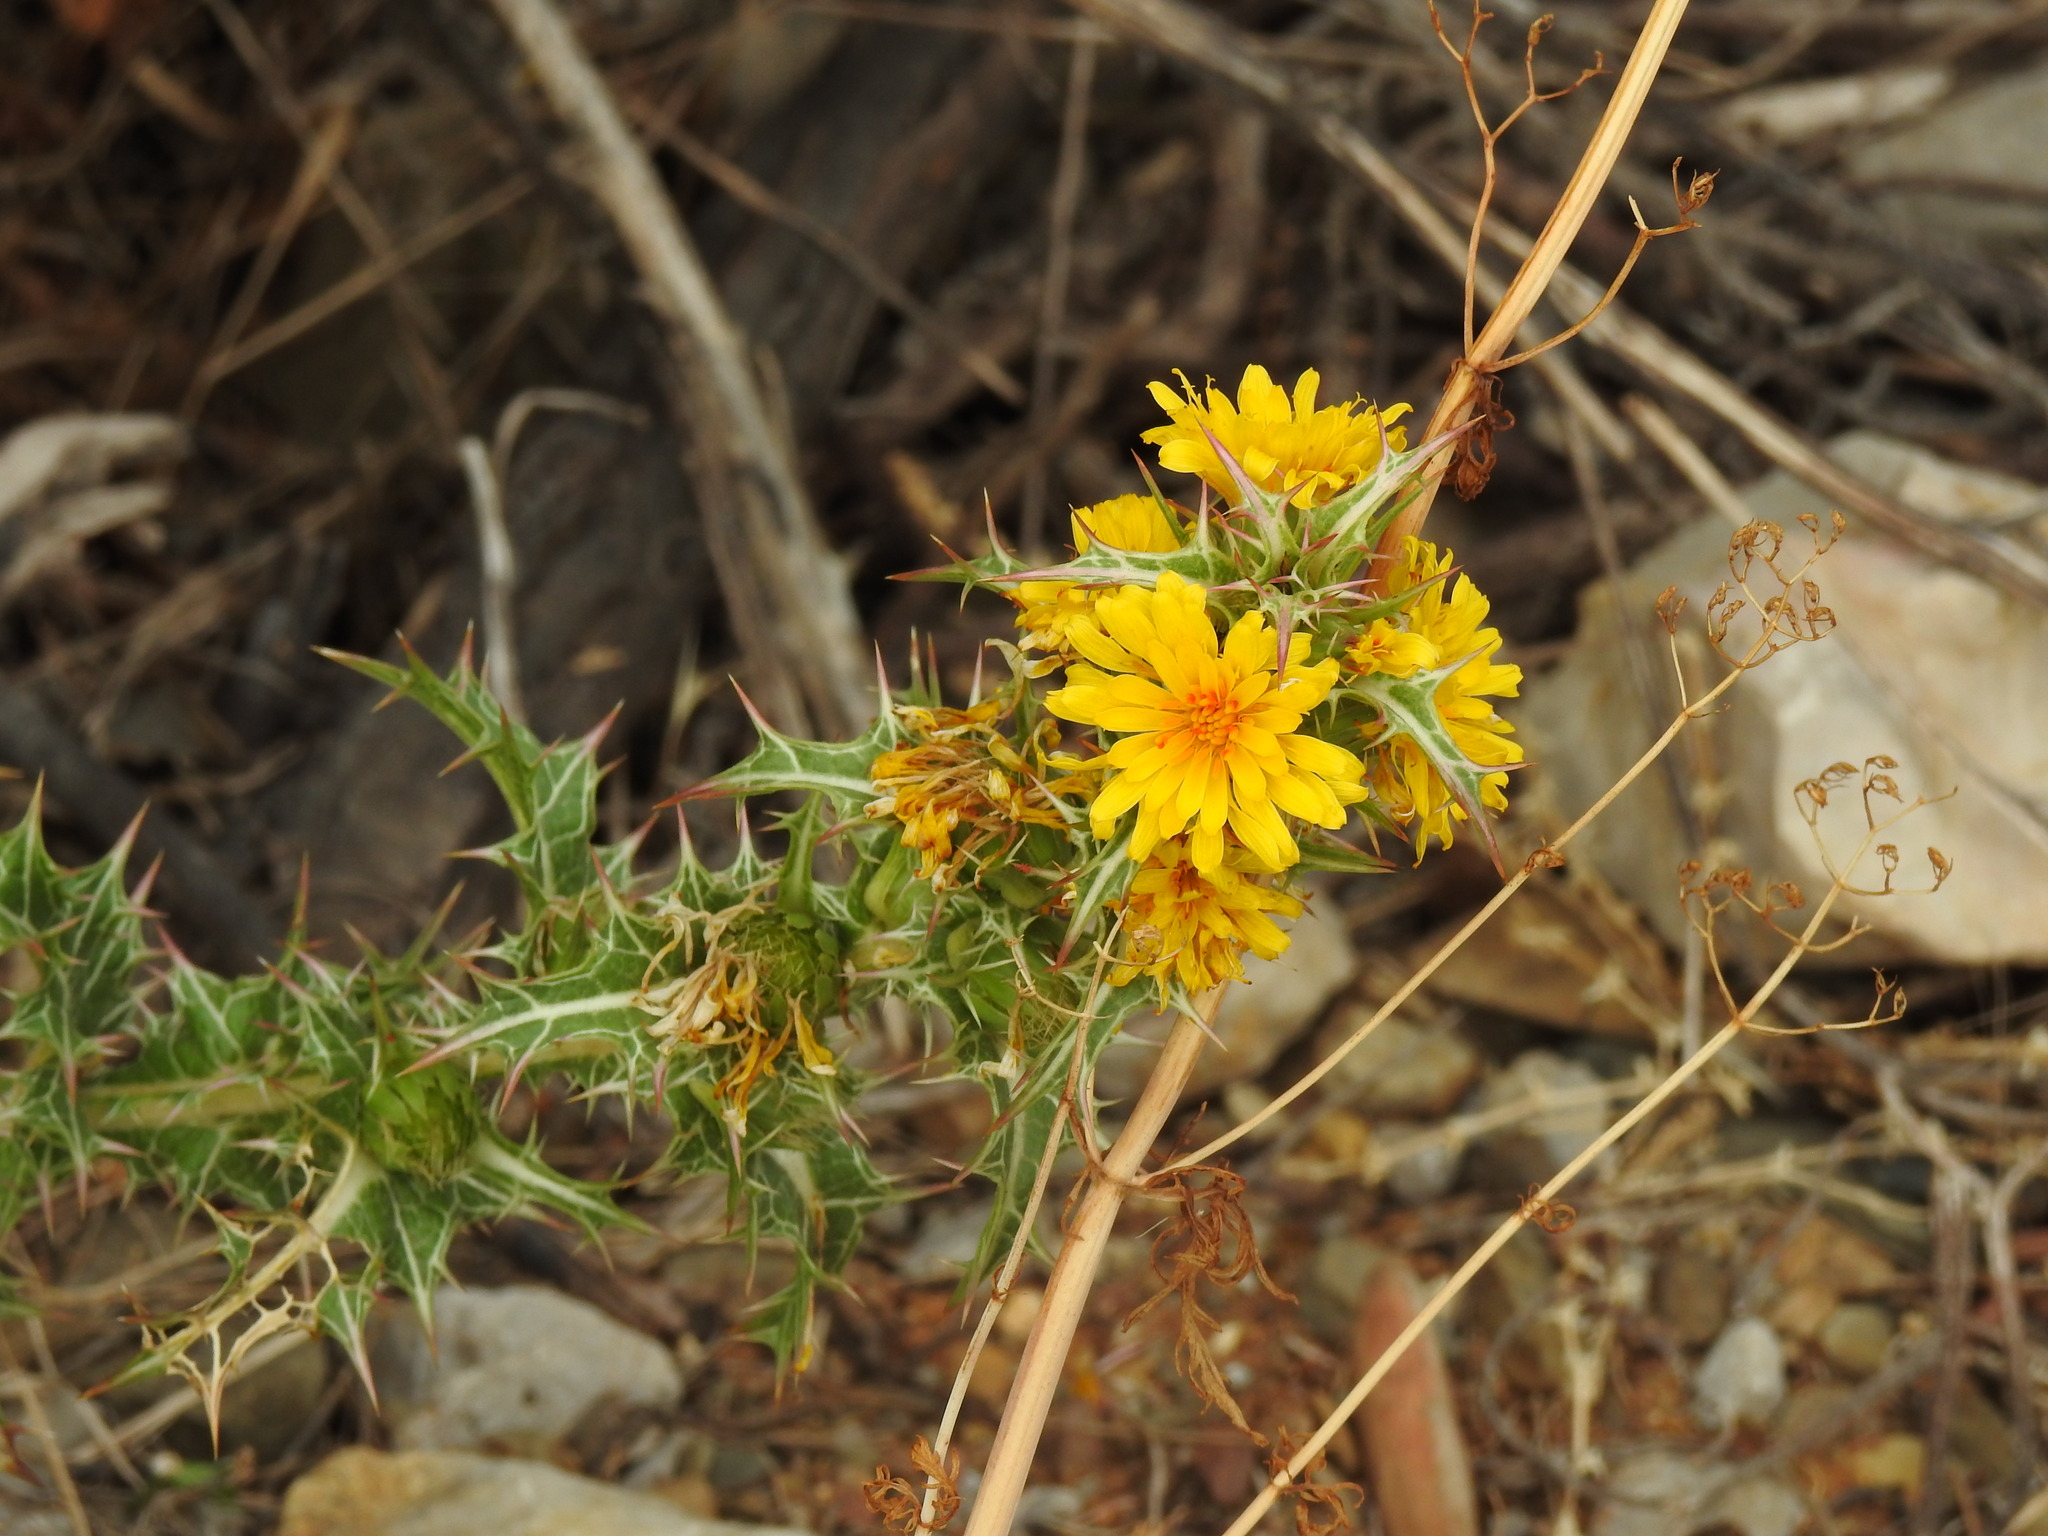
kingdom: Plantae
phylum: Tracheophyta
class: Magnoliopsida
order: Asterales
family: Asteraceae
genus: Scolymus
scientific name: Scolymus hispanicus
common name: Golden thistle
